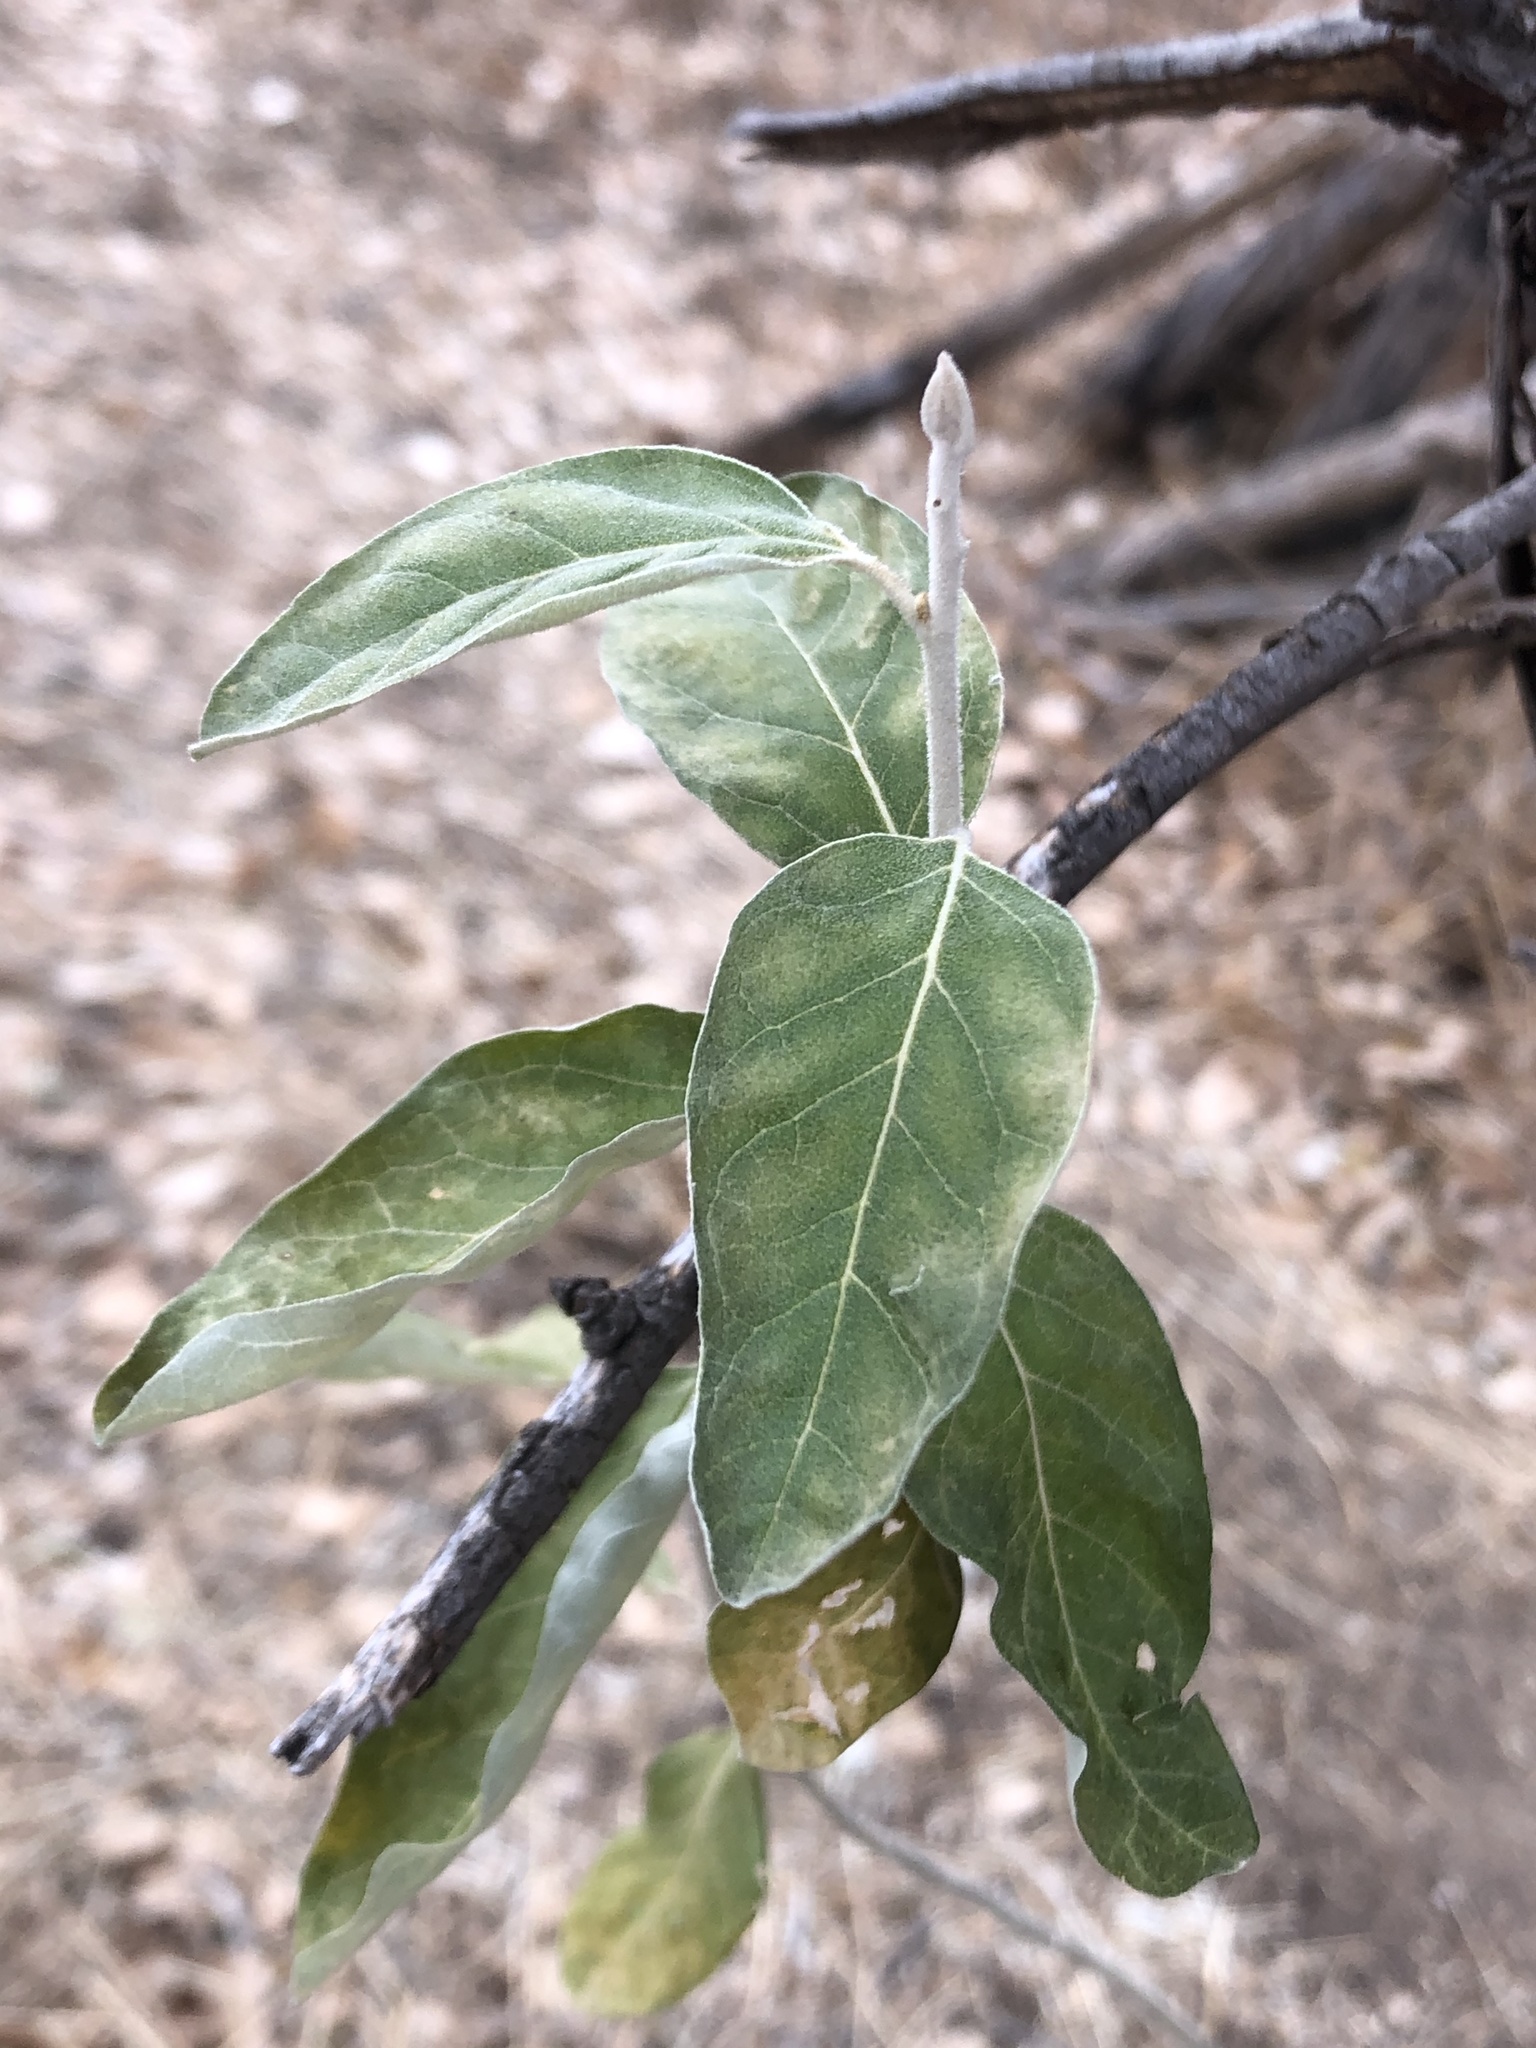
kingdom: Plantae
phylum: Tracheophyta
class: Magnoliopsida
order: Rosales
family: Elaeagnaceae
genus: Elaeagnus
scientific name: Elaeagnus angustifolia
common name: Russian olive
